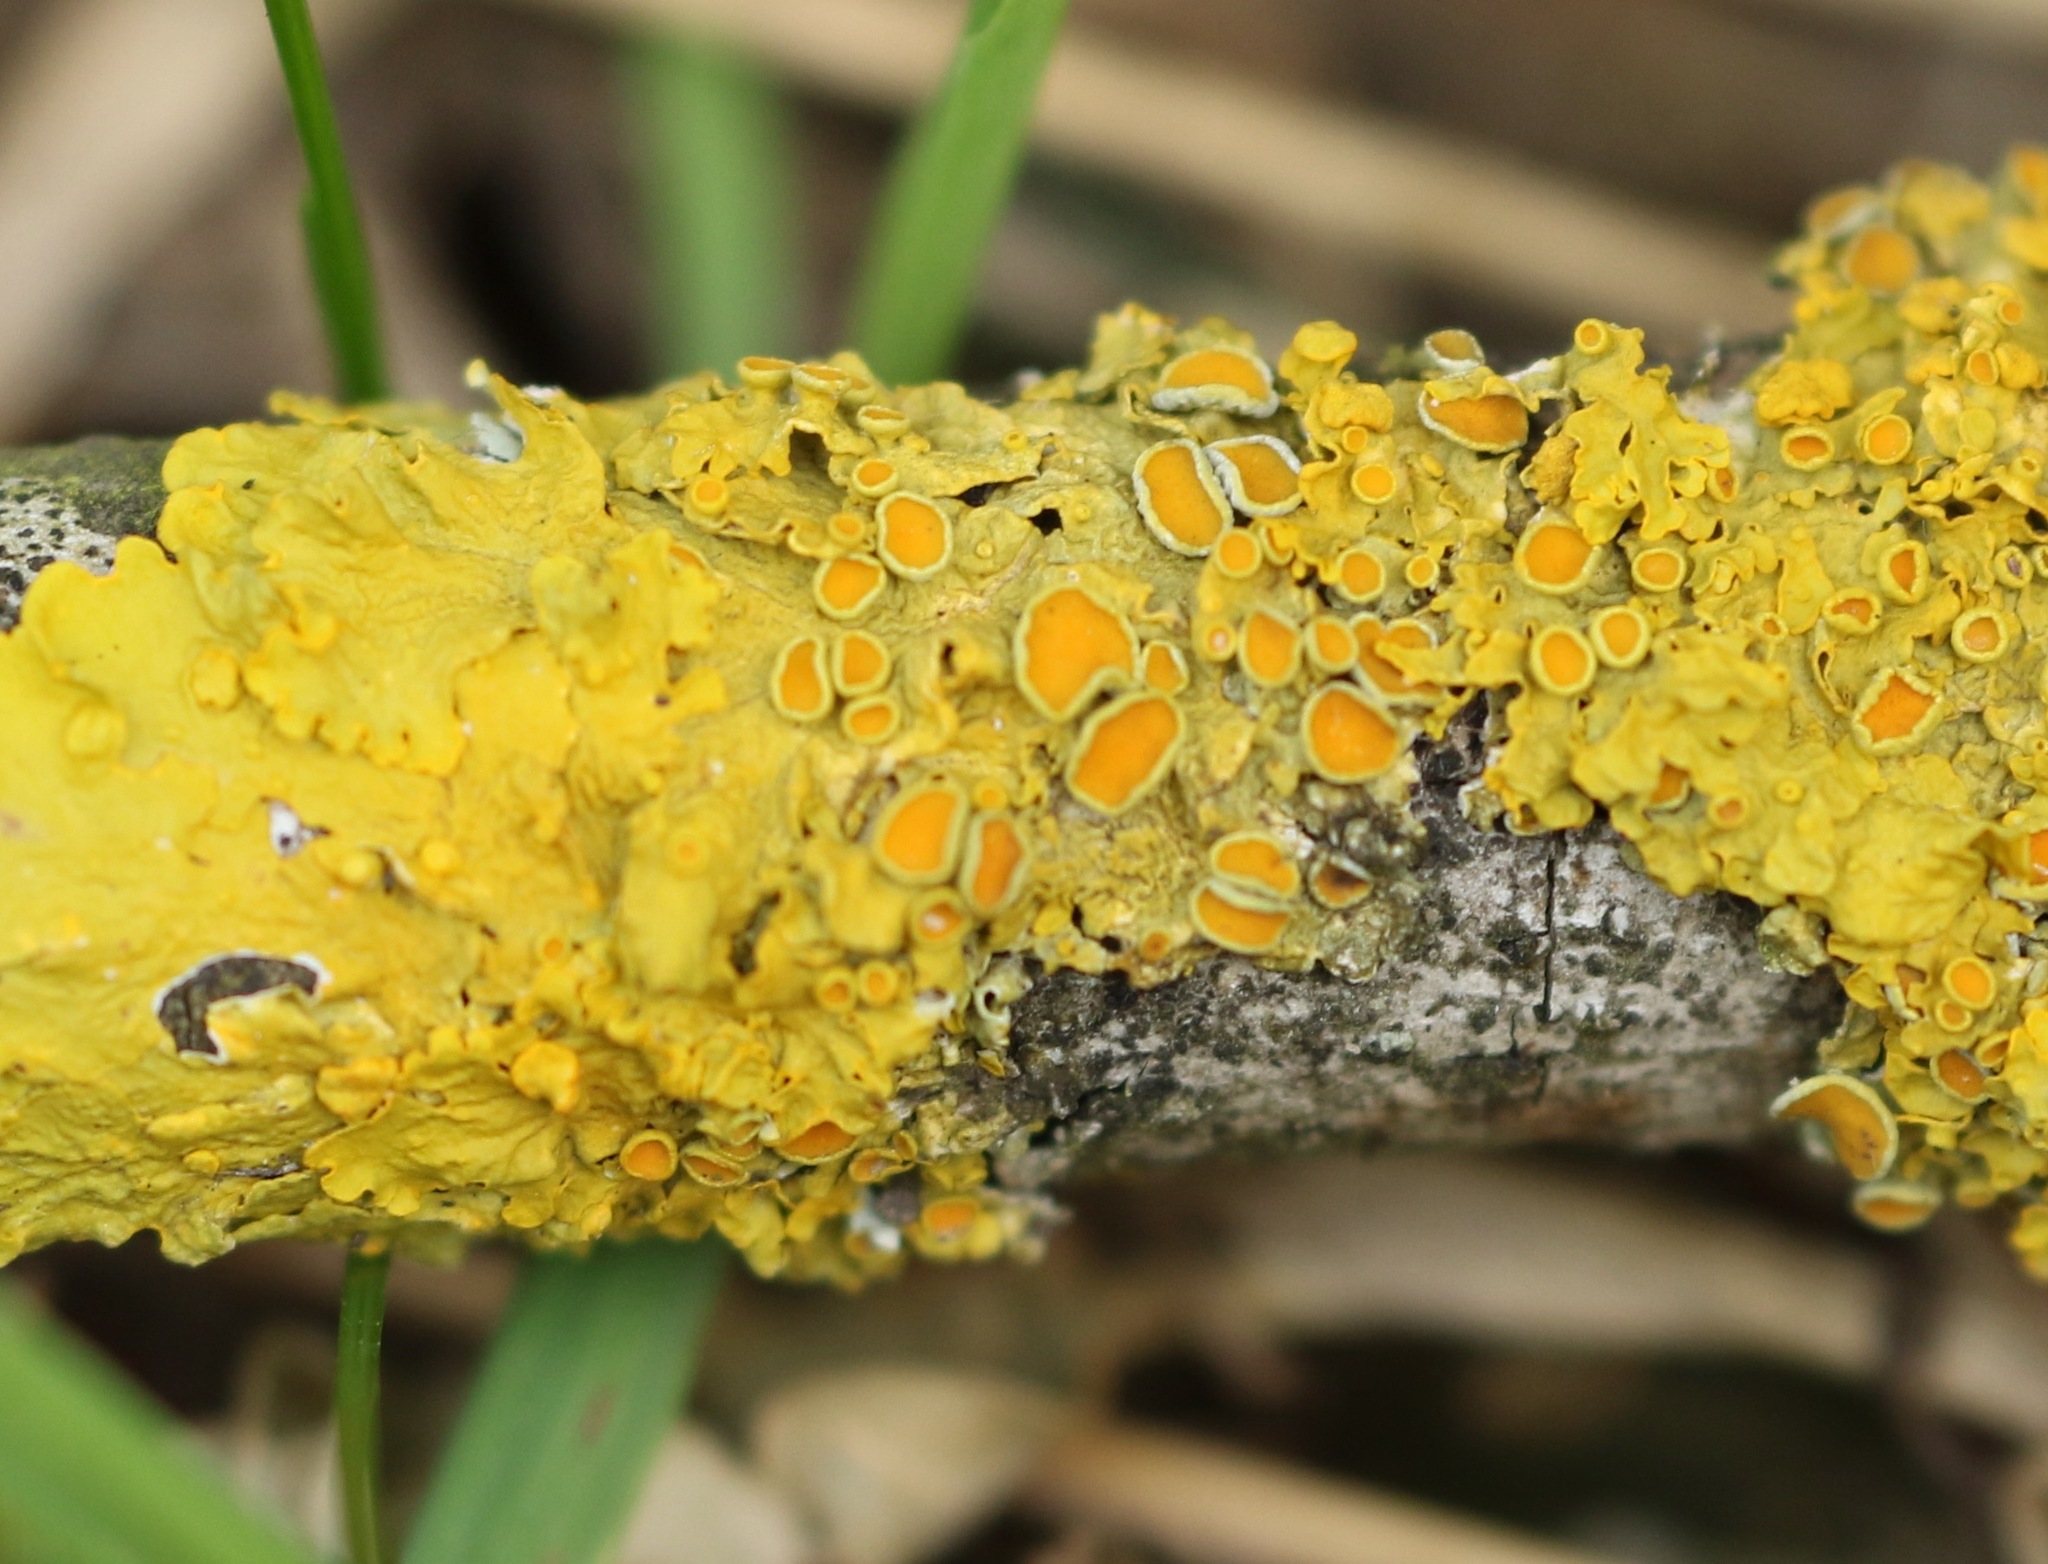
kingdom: Fungi
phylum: Ascomycota
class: Lecanoromycetes
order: Teloschistales
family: Teloschistaceae
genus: Xanthoria
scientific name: Xanthoria parietina
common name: Common orange lichen
